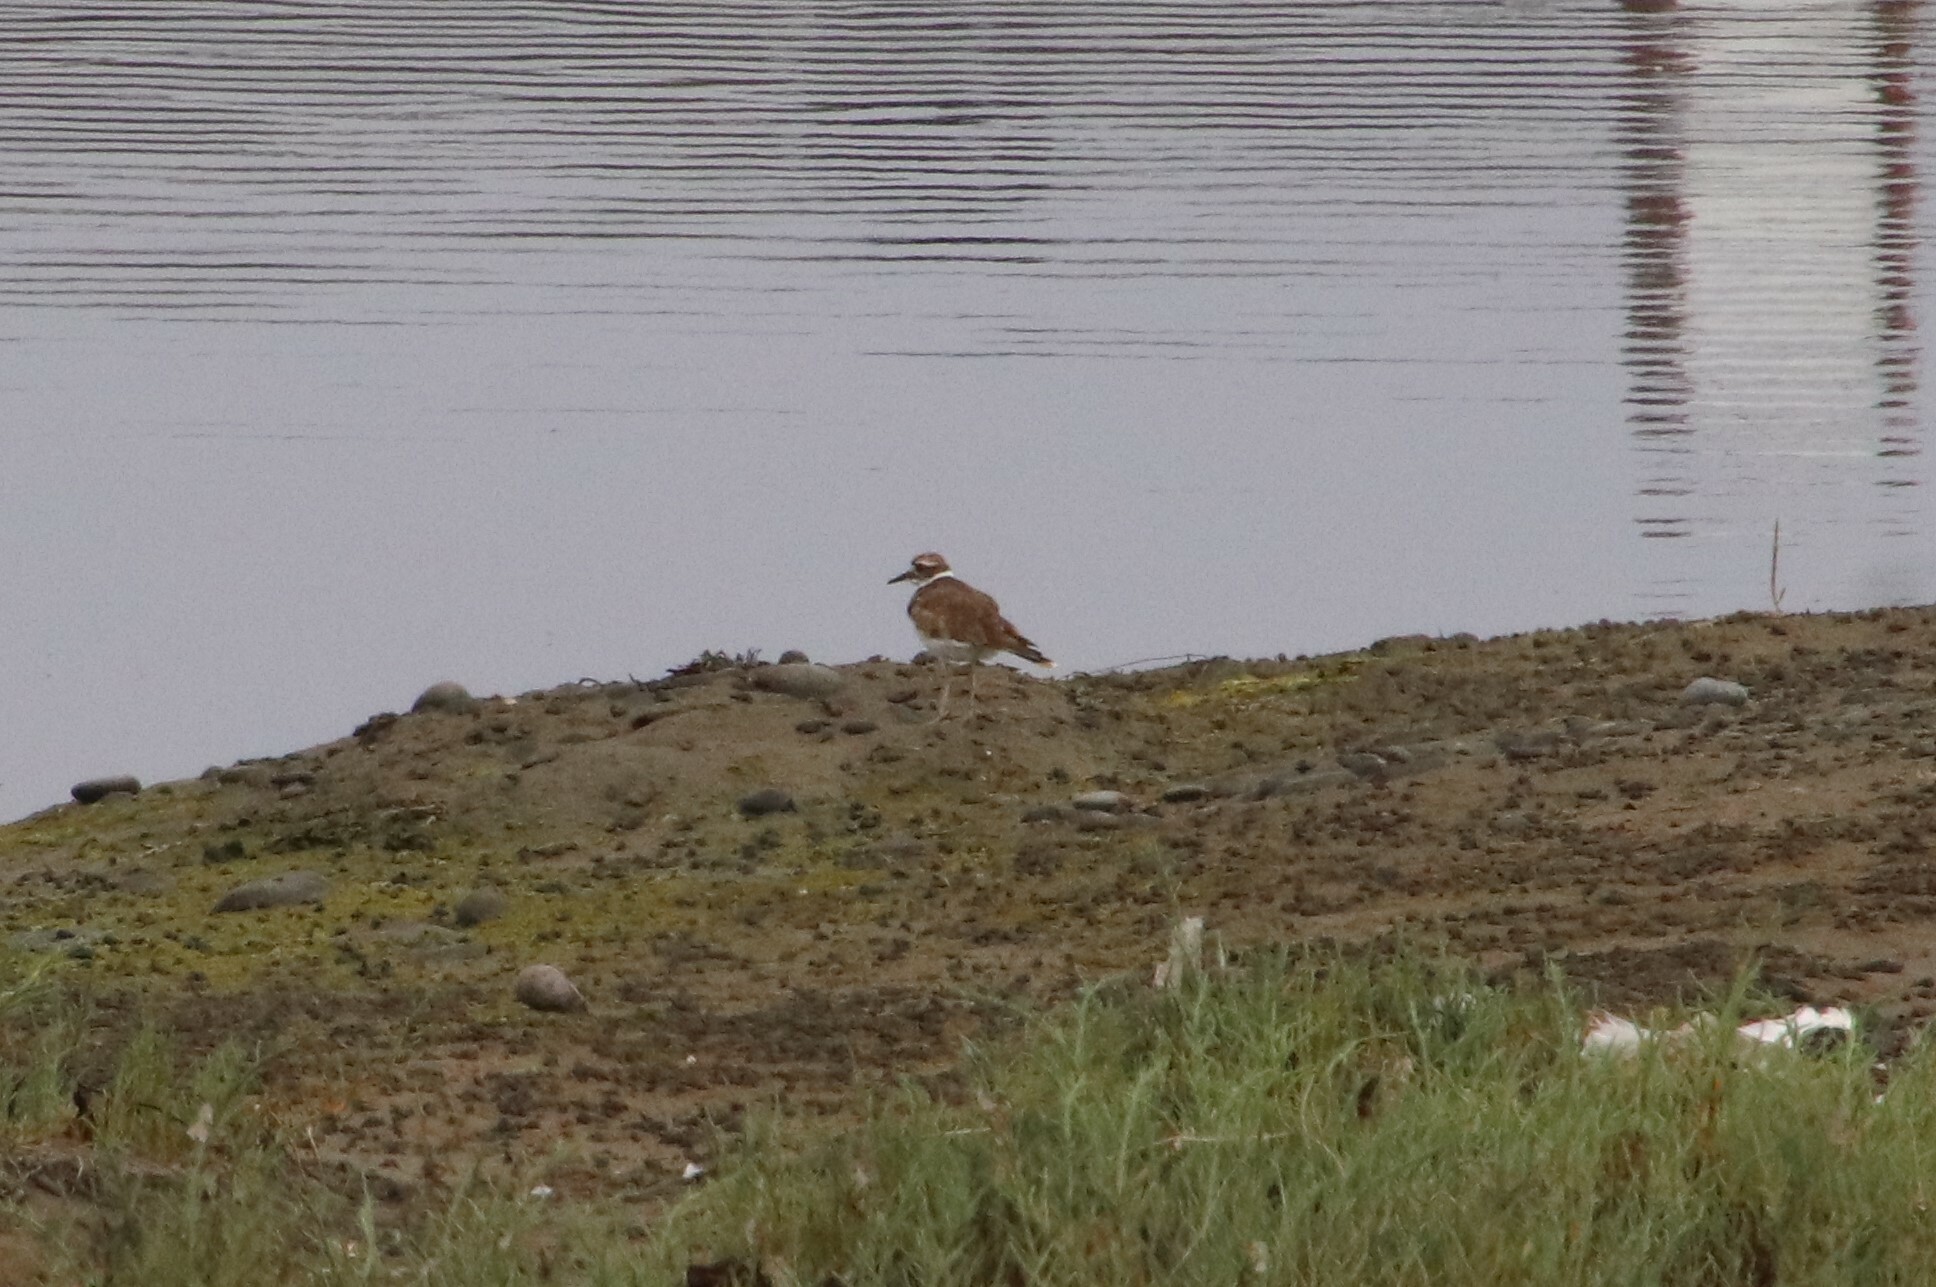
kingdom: Animalia
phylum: Chordata
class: Aves
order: Charadriiformes
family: Charadriidae
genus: Charadrius
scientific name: Charadrius vociferus
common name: Killdeer
